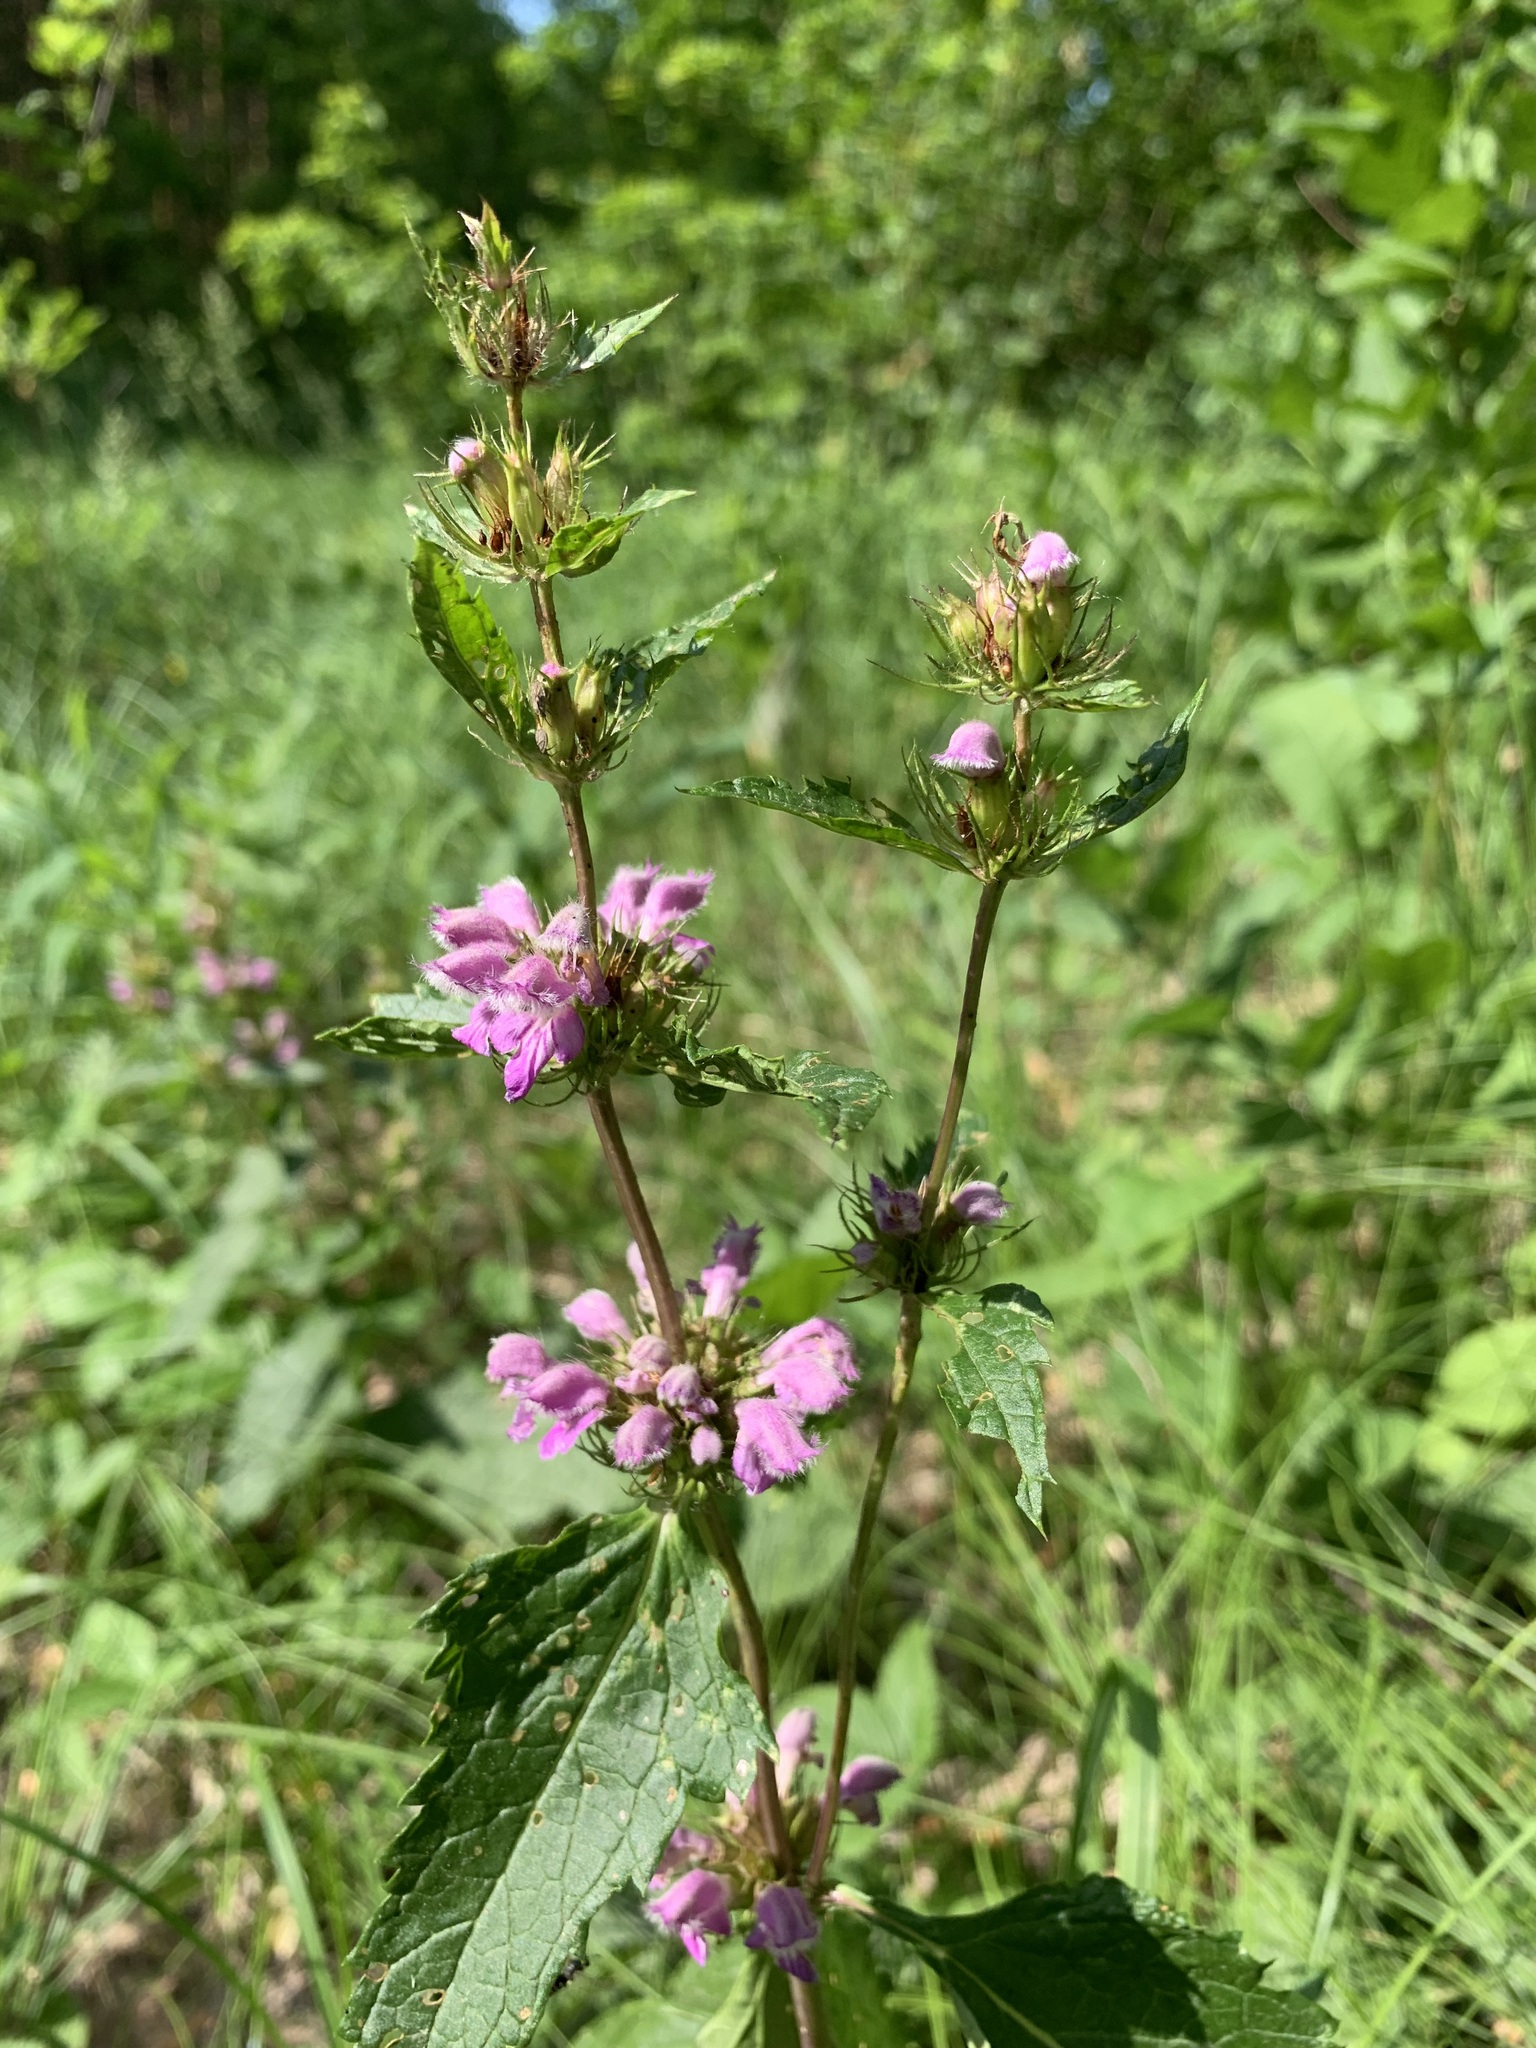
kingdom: Plantae
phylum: Tracheophyta
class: Magnoliopsida
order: Lamiales
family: Lamiaceae
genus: Phlomoides
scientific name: Phlomoides tuberosa
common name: Tuberous jerusalem sage
